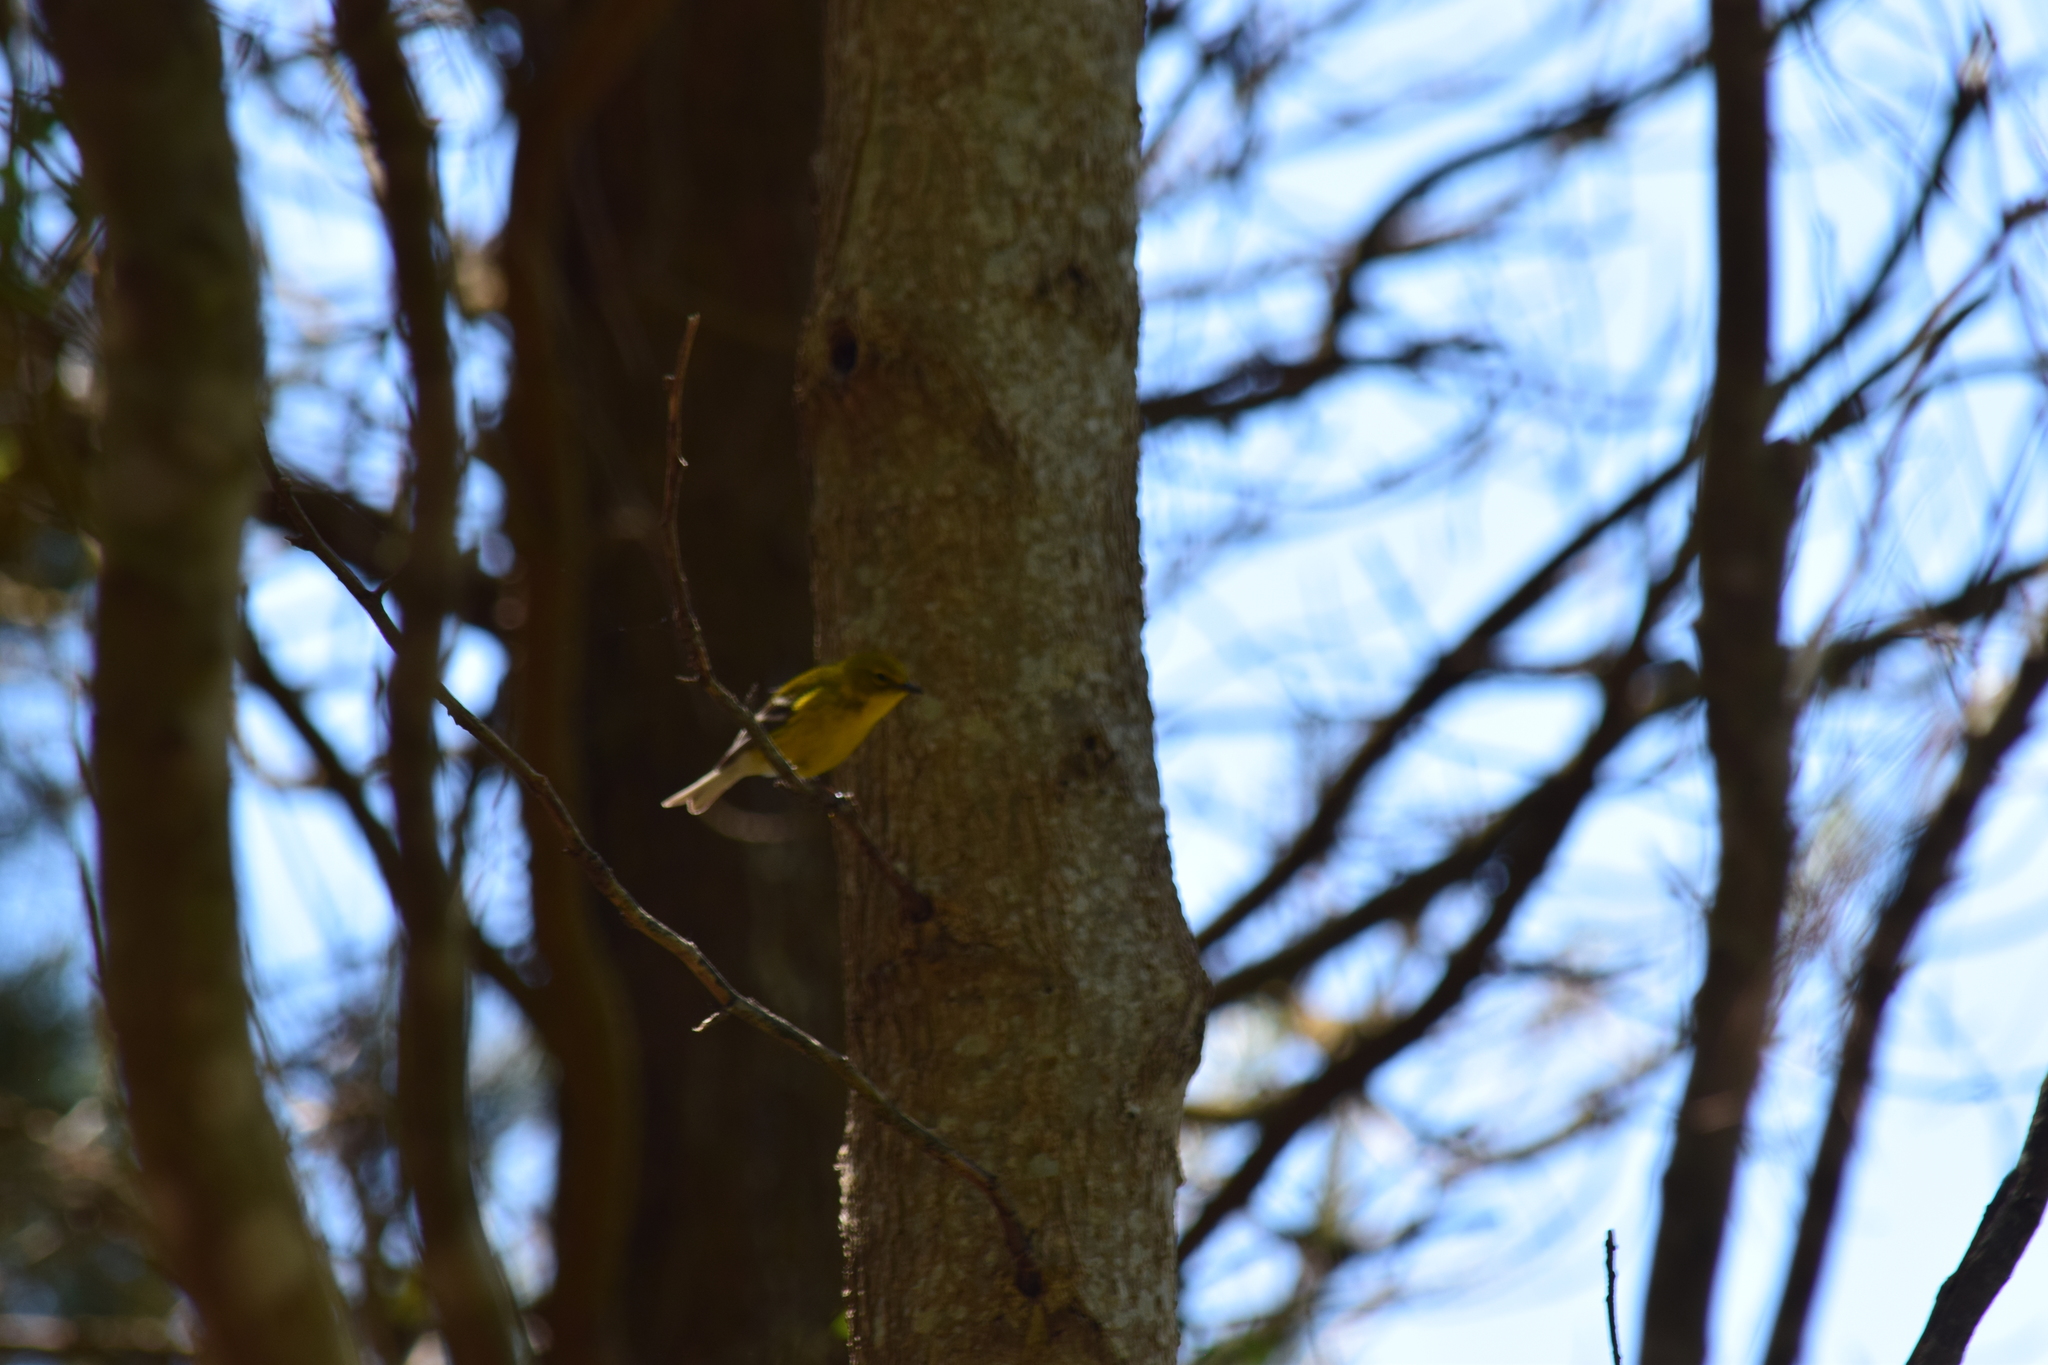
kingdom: Animalia
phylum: Chordata
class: Aves
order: Passeriformes
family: Parulidae
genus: Setophaga
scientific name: Setophaga pinus
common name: Pine warbler
